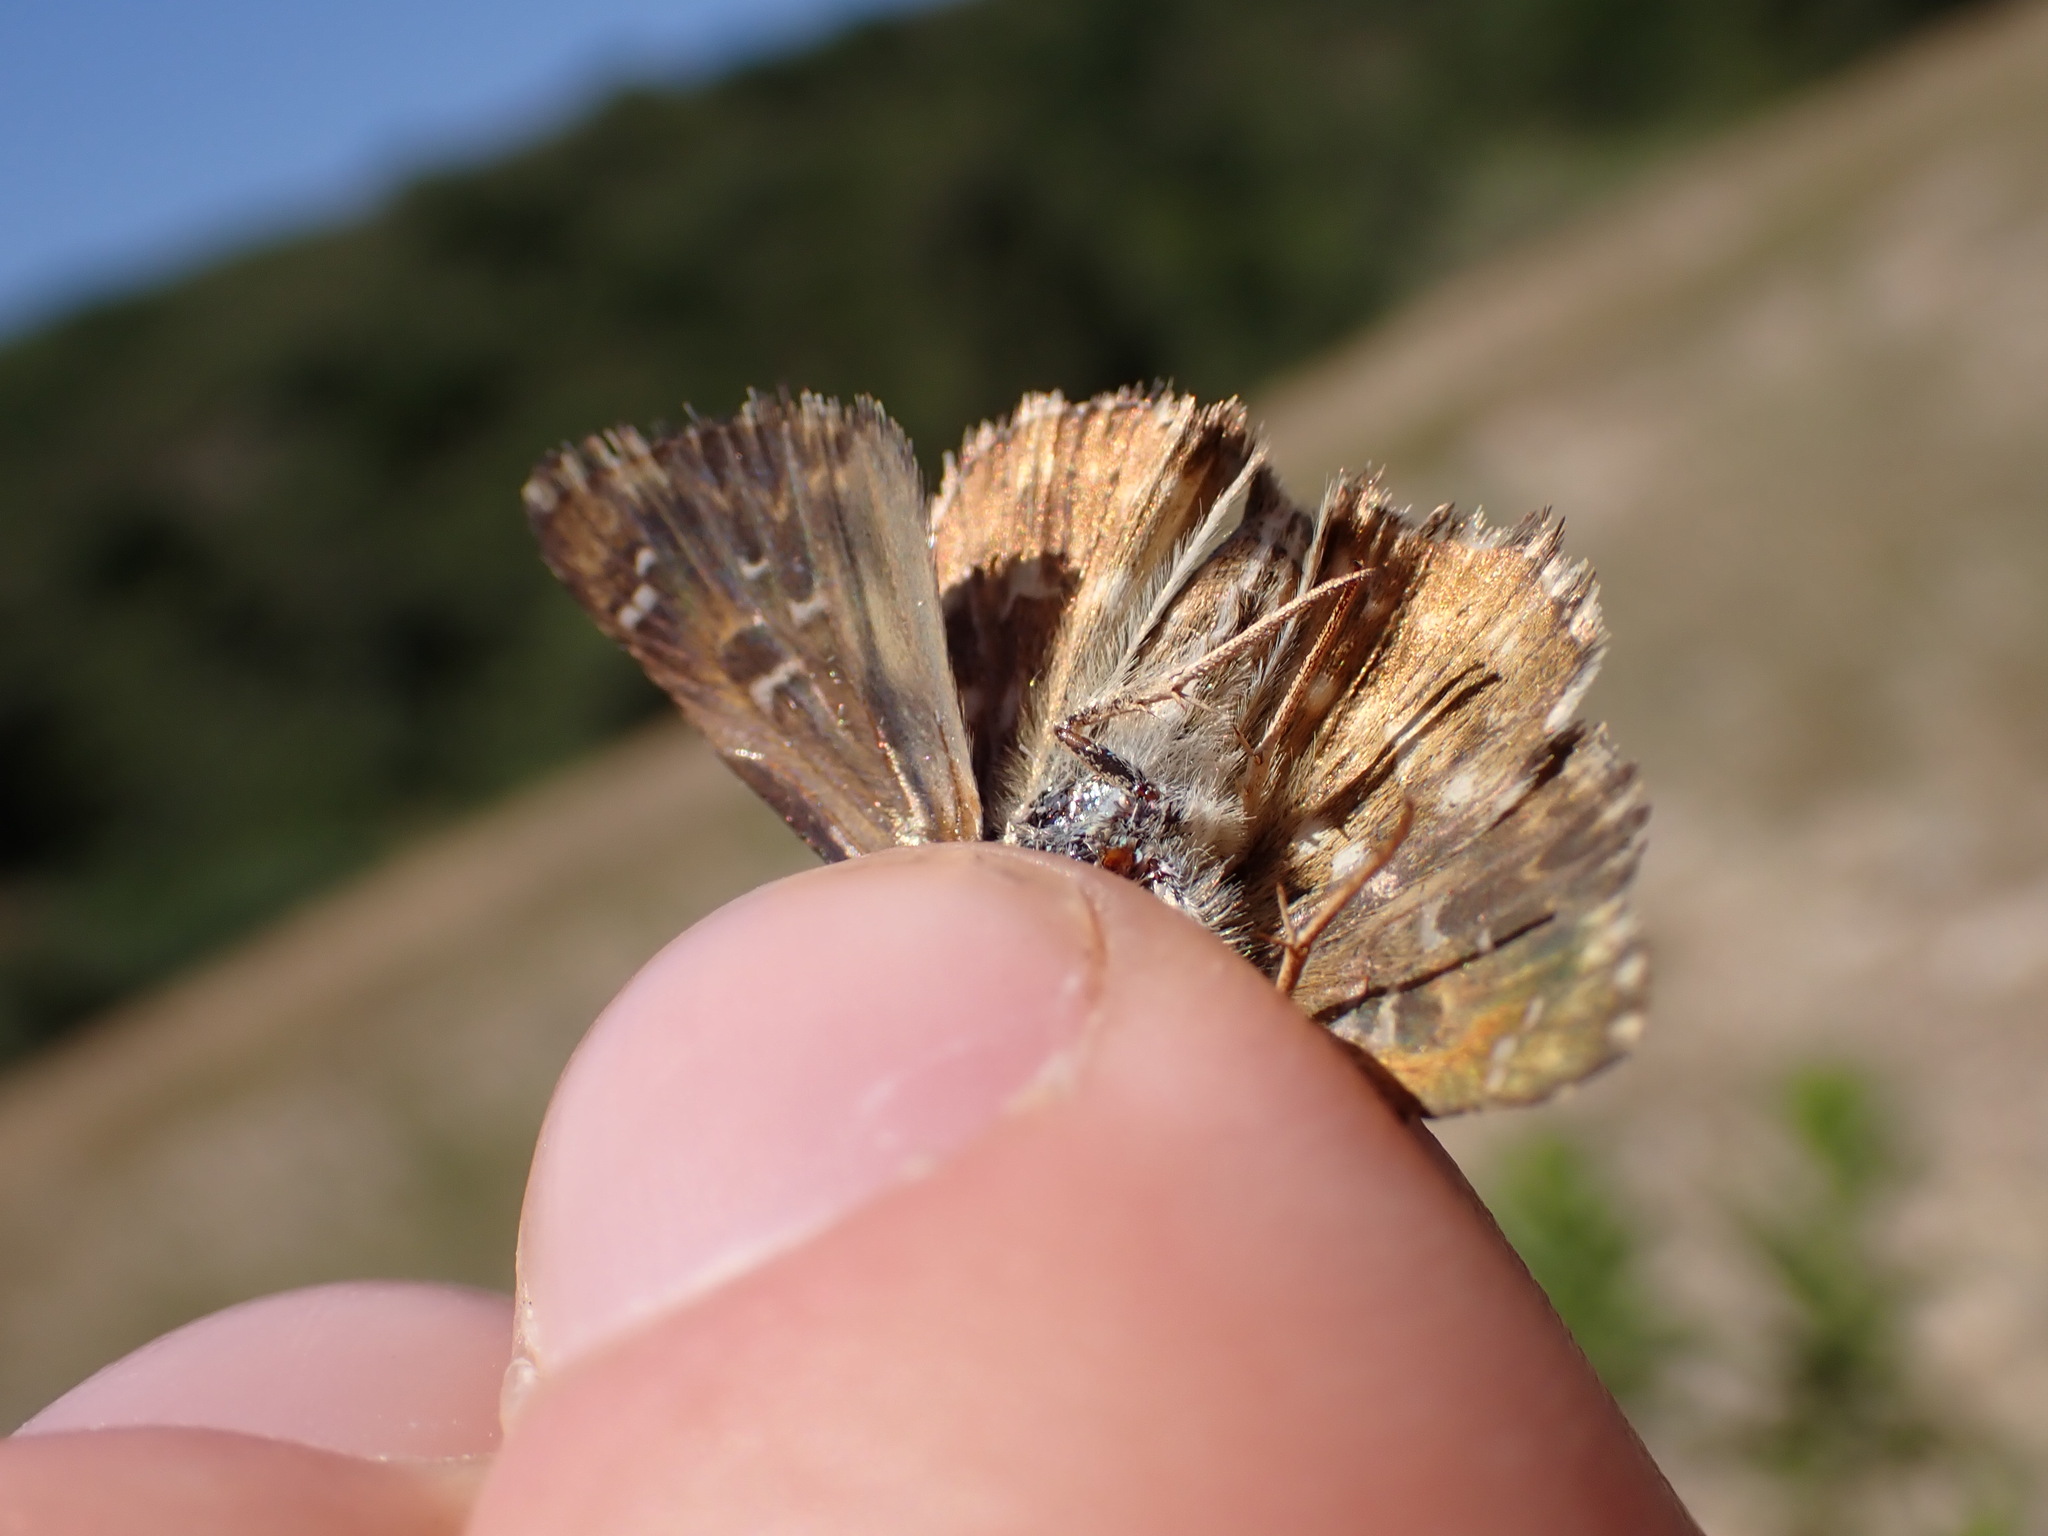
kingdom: Animalia
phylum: Arthropoda
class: Insecta
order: Lepidoptera
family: Hesperiidae
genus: Carcharodus
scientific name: Carcharodus alceae
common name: Mallow skipper
